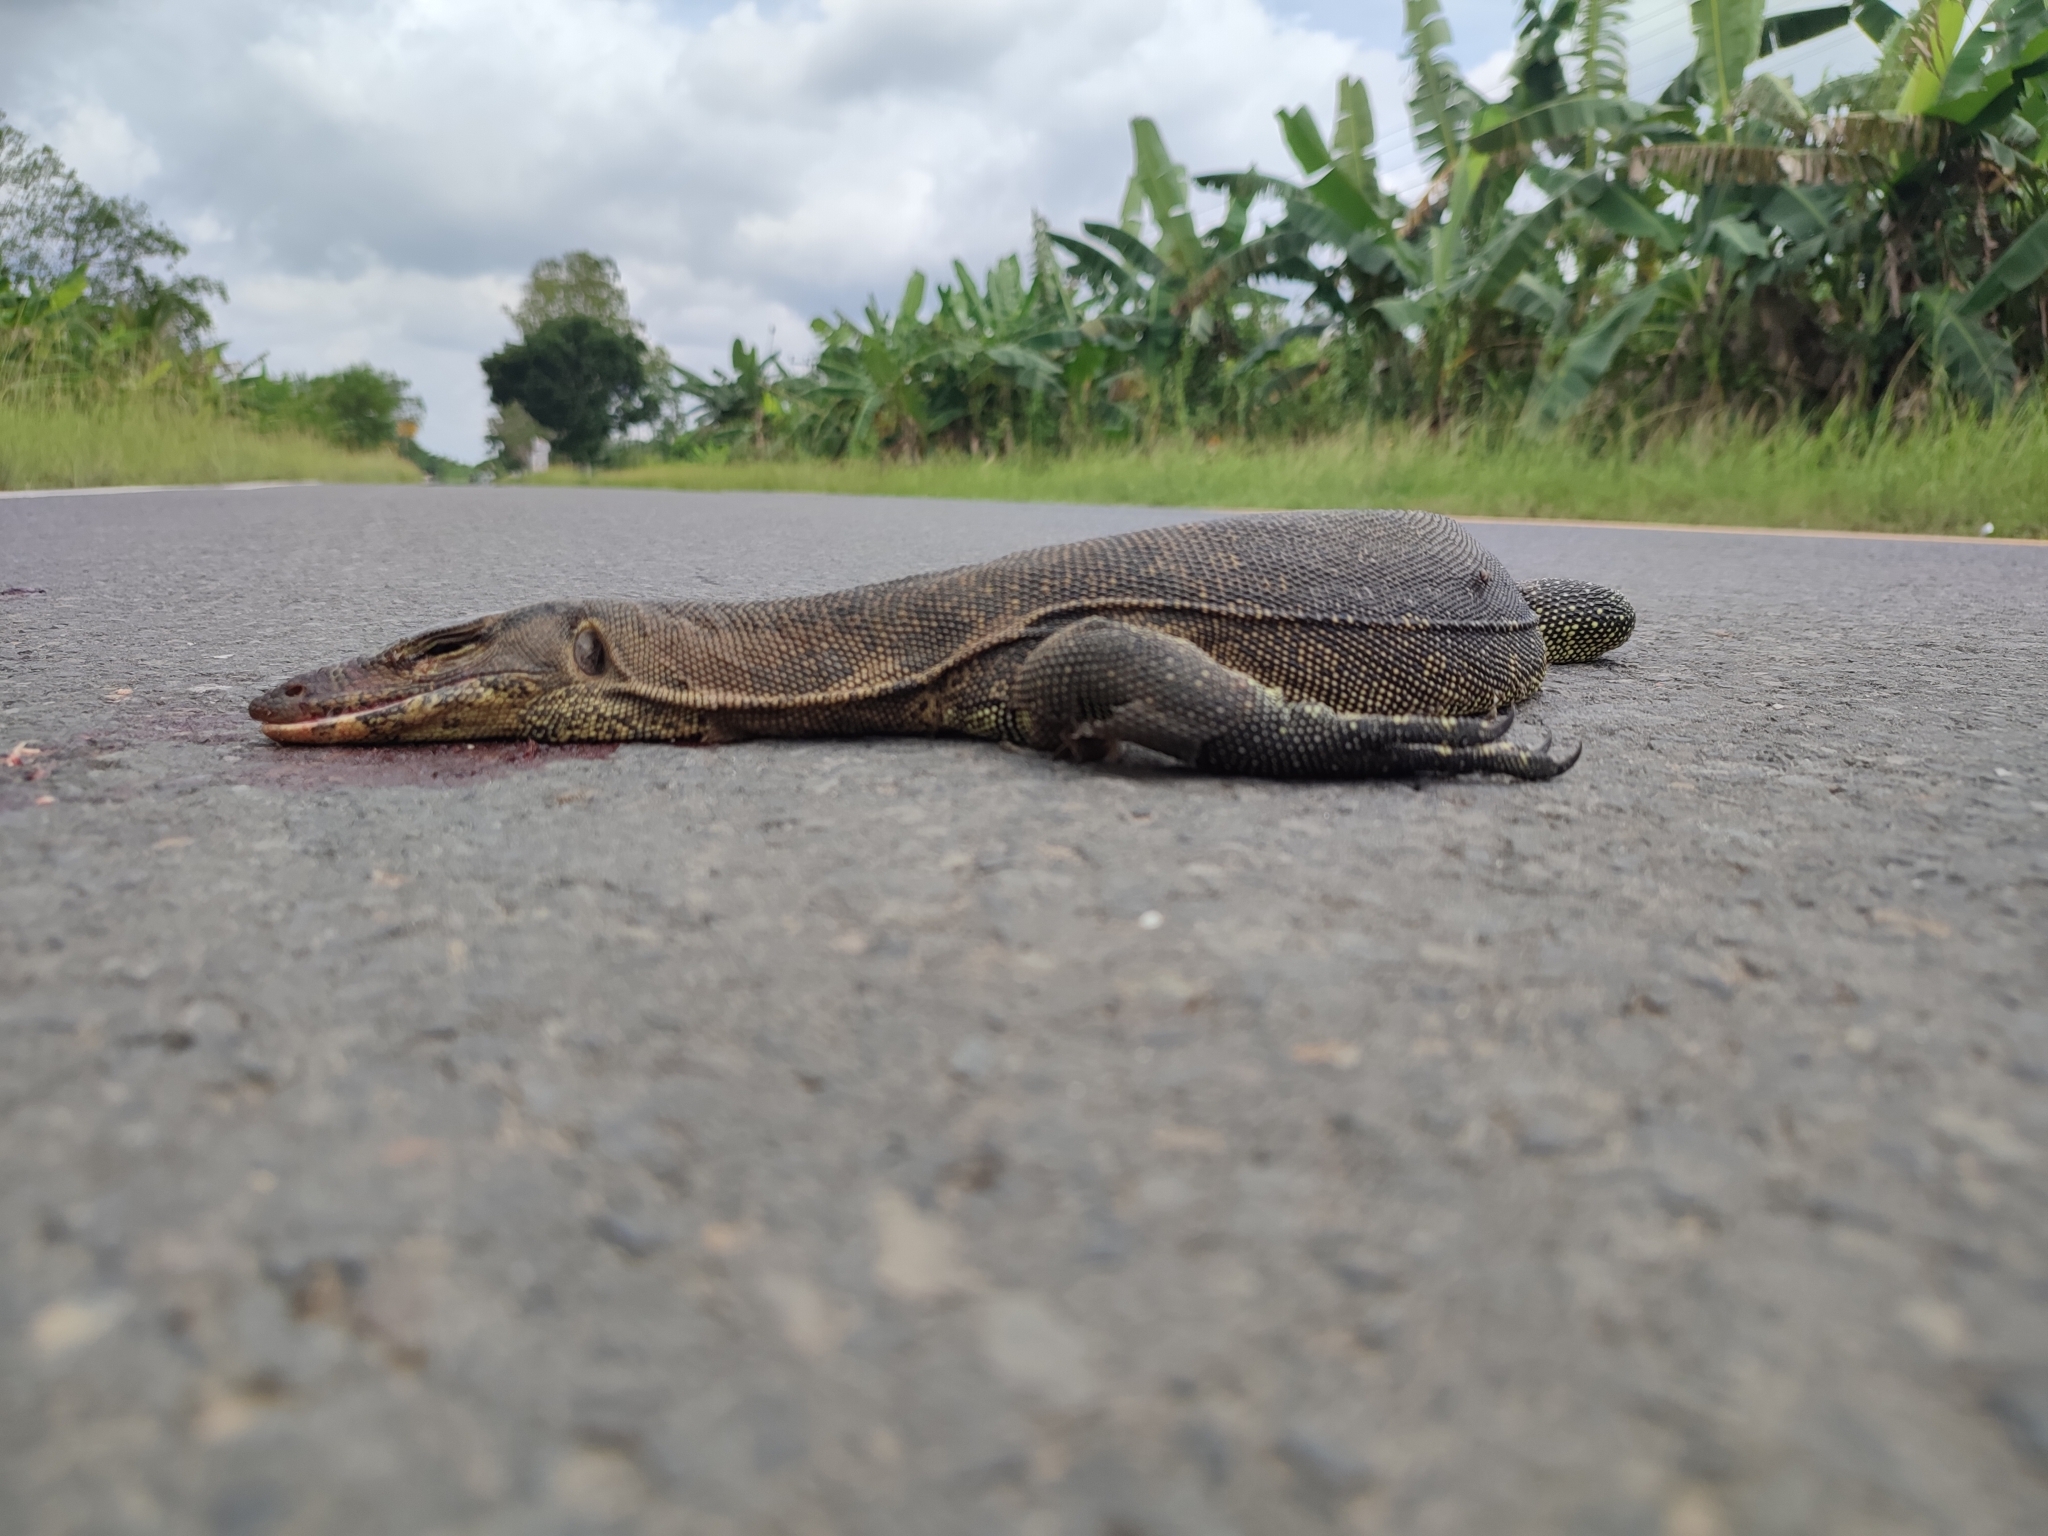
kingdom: Animalia
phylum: Chordata
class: Squamata
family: Varanidae
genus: Varanus
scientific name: Varanus salvator
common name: Common water monitor
